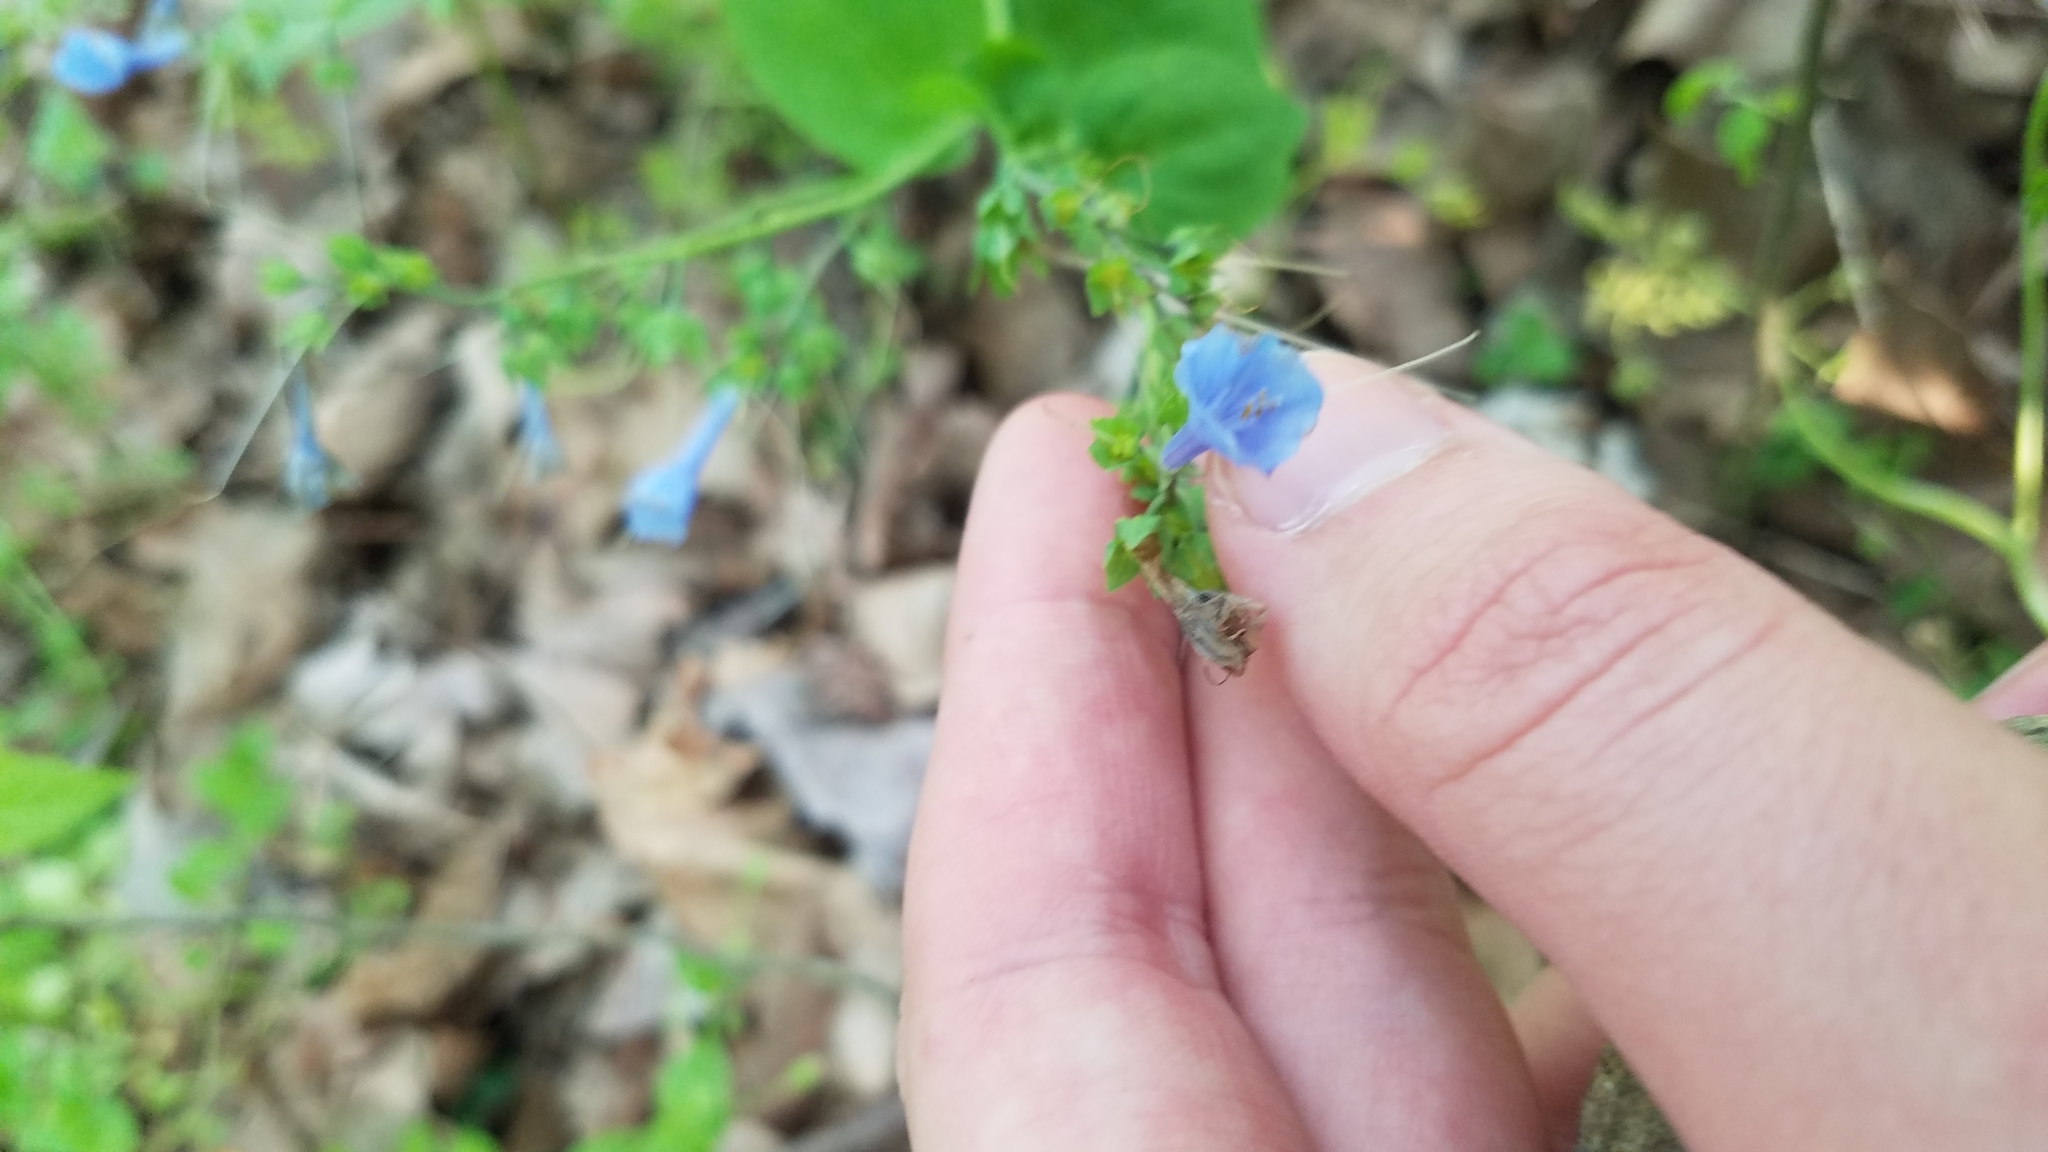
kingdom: Plantae
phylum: Tracheophyta
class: Magnoliopsida
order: Boraginales
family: Boraginaceae
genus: Mertensia
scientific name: Mertensia virginica
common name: Virginia bluebells
